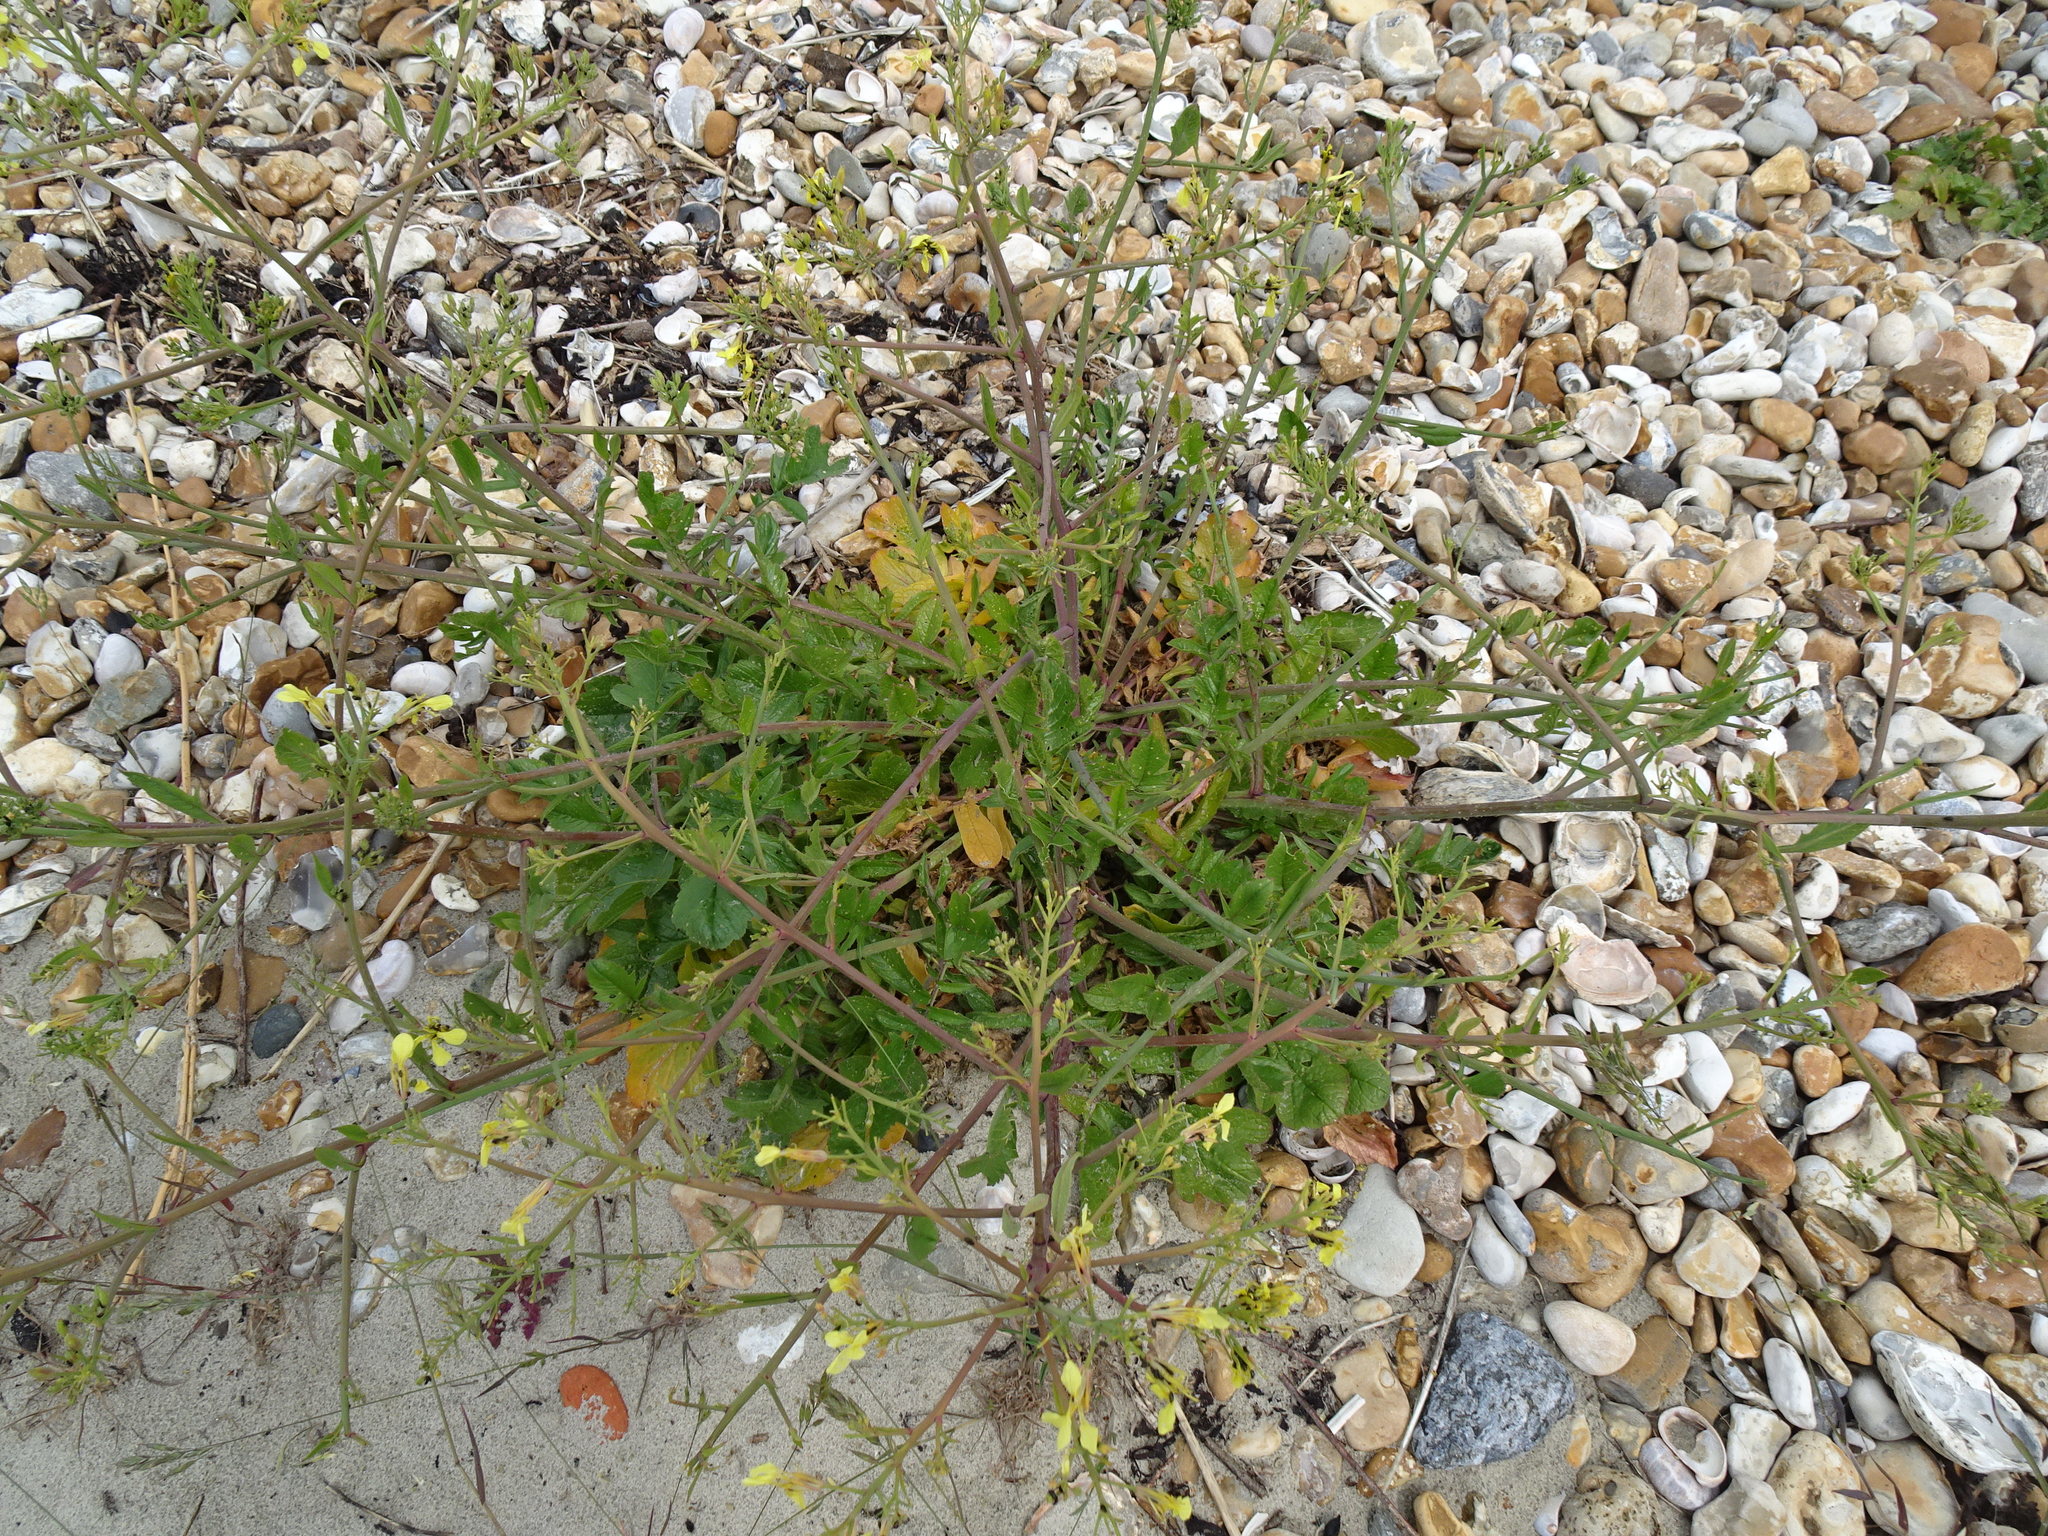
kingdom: Plantae
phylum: Tracheophyta
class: Magnoliopsida
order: Brassicales
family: Brassicaceae
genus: Raphanus
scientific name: Raphanus raphanistrum
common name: Wild radish
